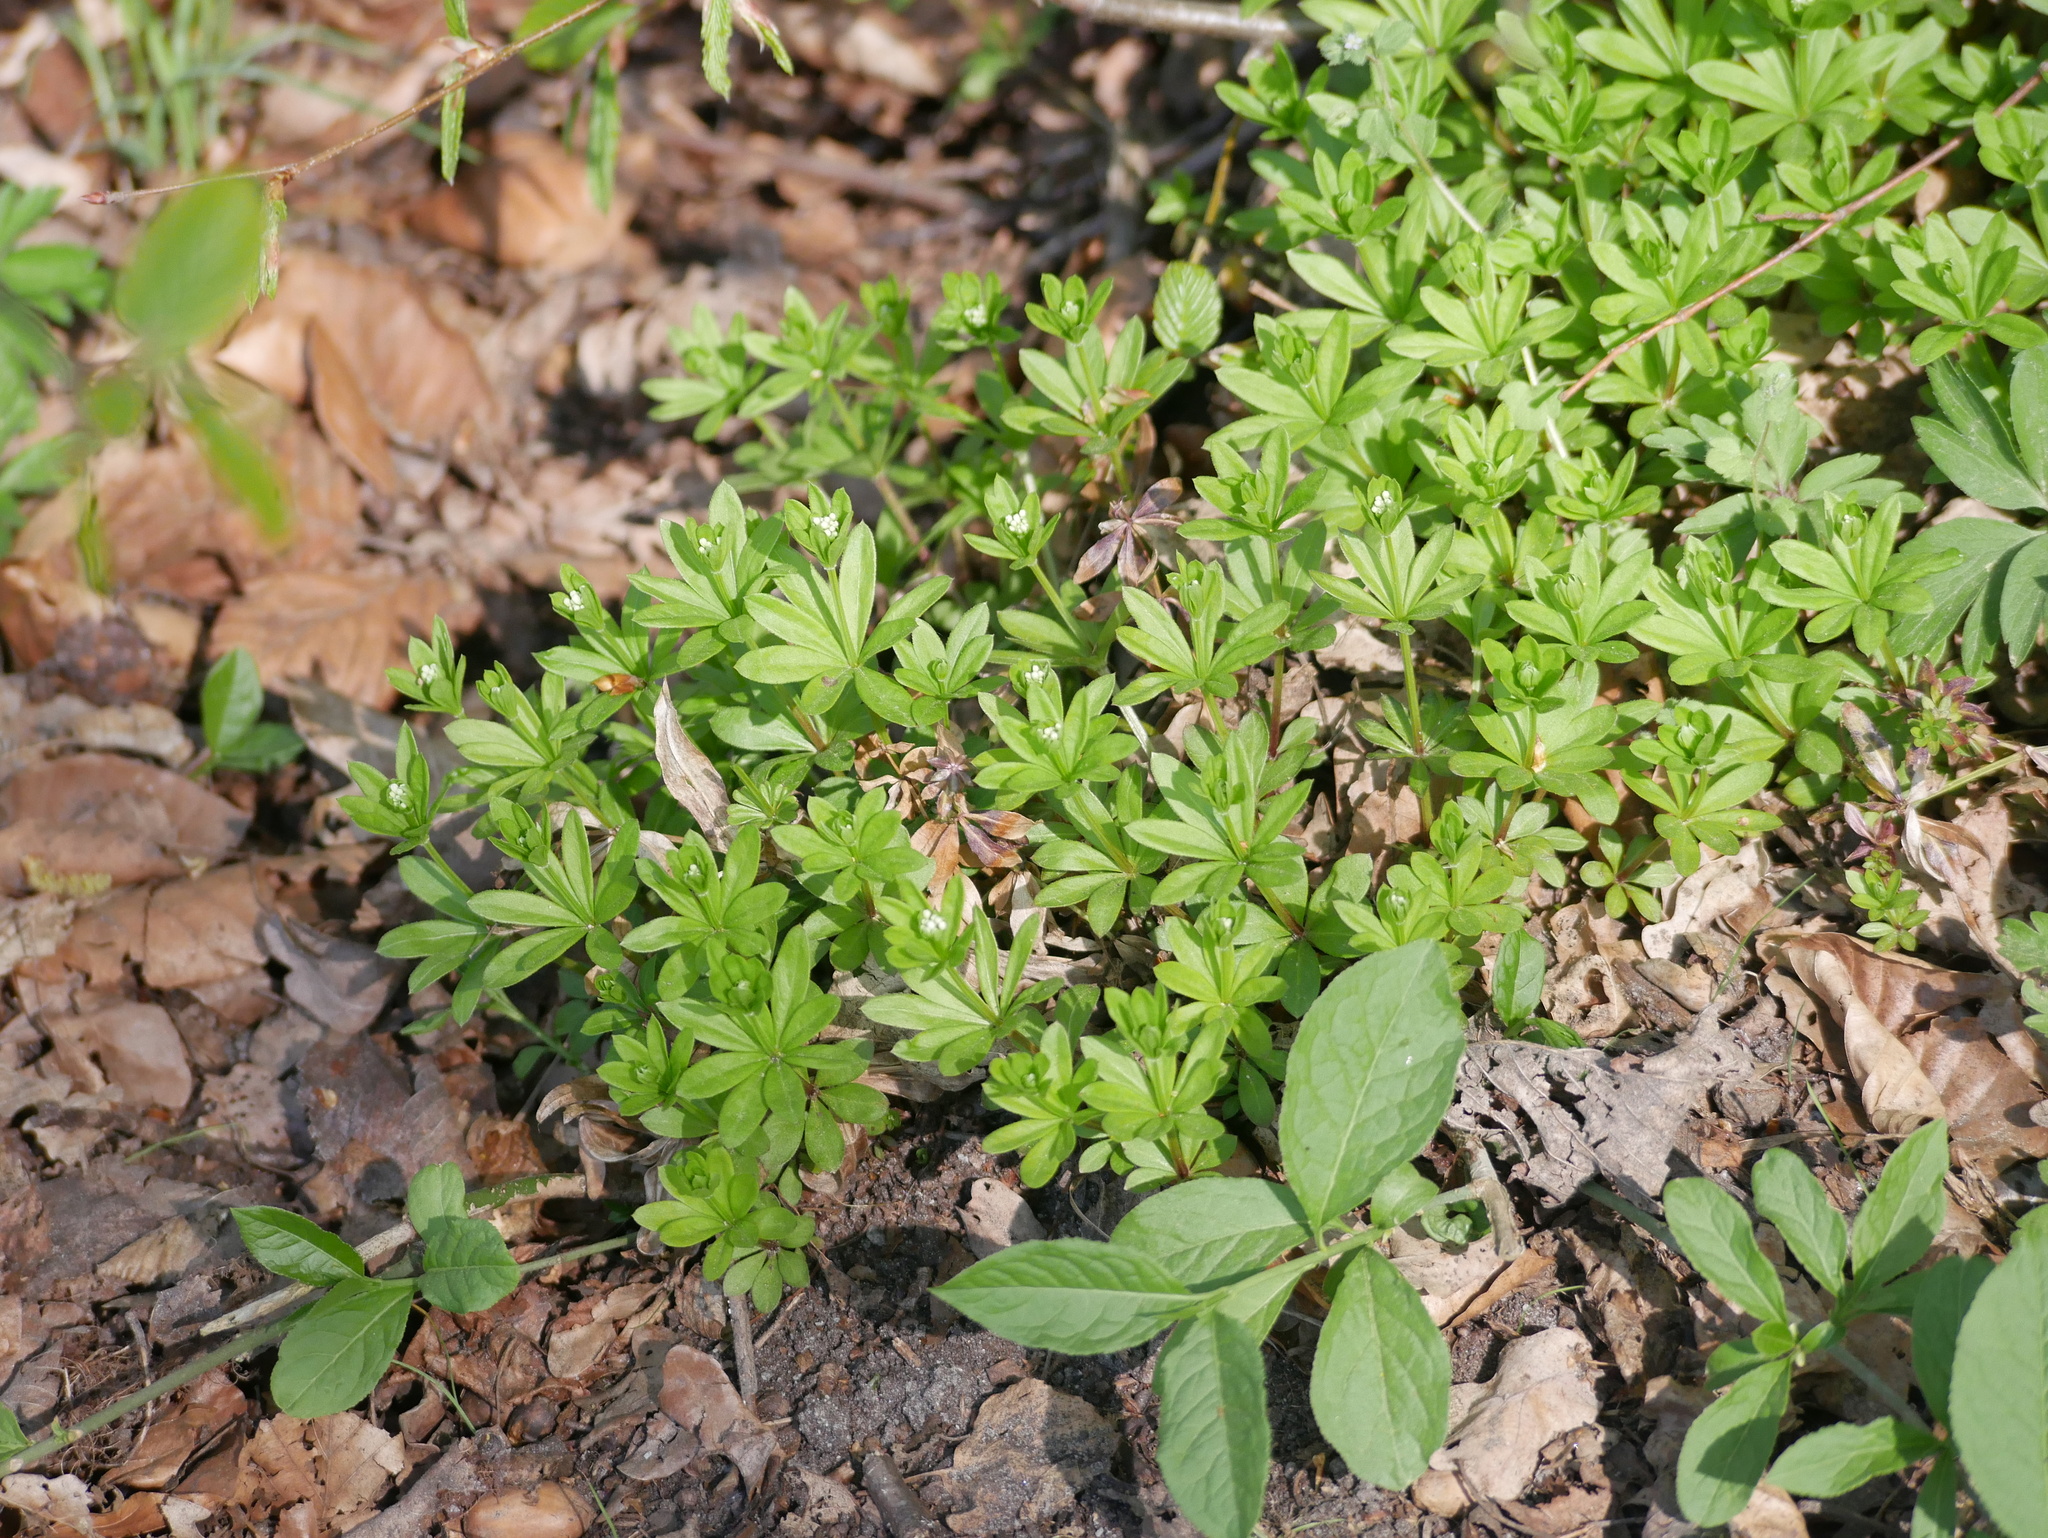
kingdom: Plantae
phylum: Tracheophyta
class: Magnoliopsida
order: Gentianales
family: Rubiaceae
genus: Galium
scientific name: Galium odoratum
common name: Sweet woodruff
